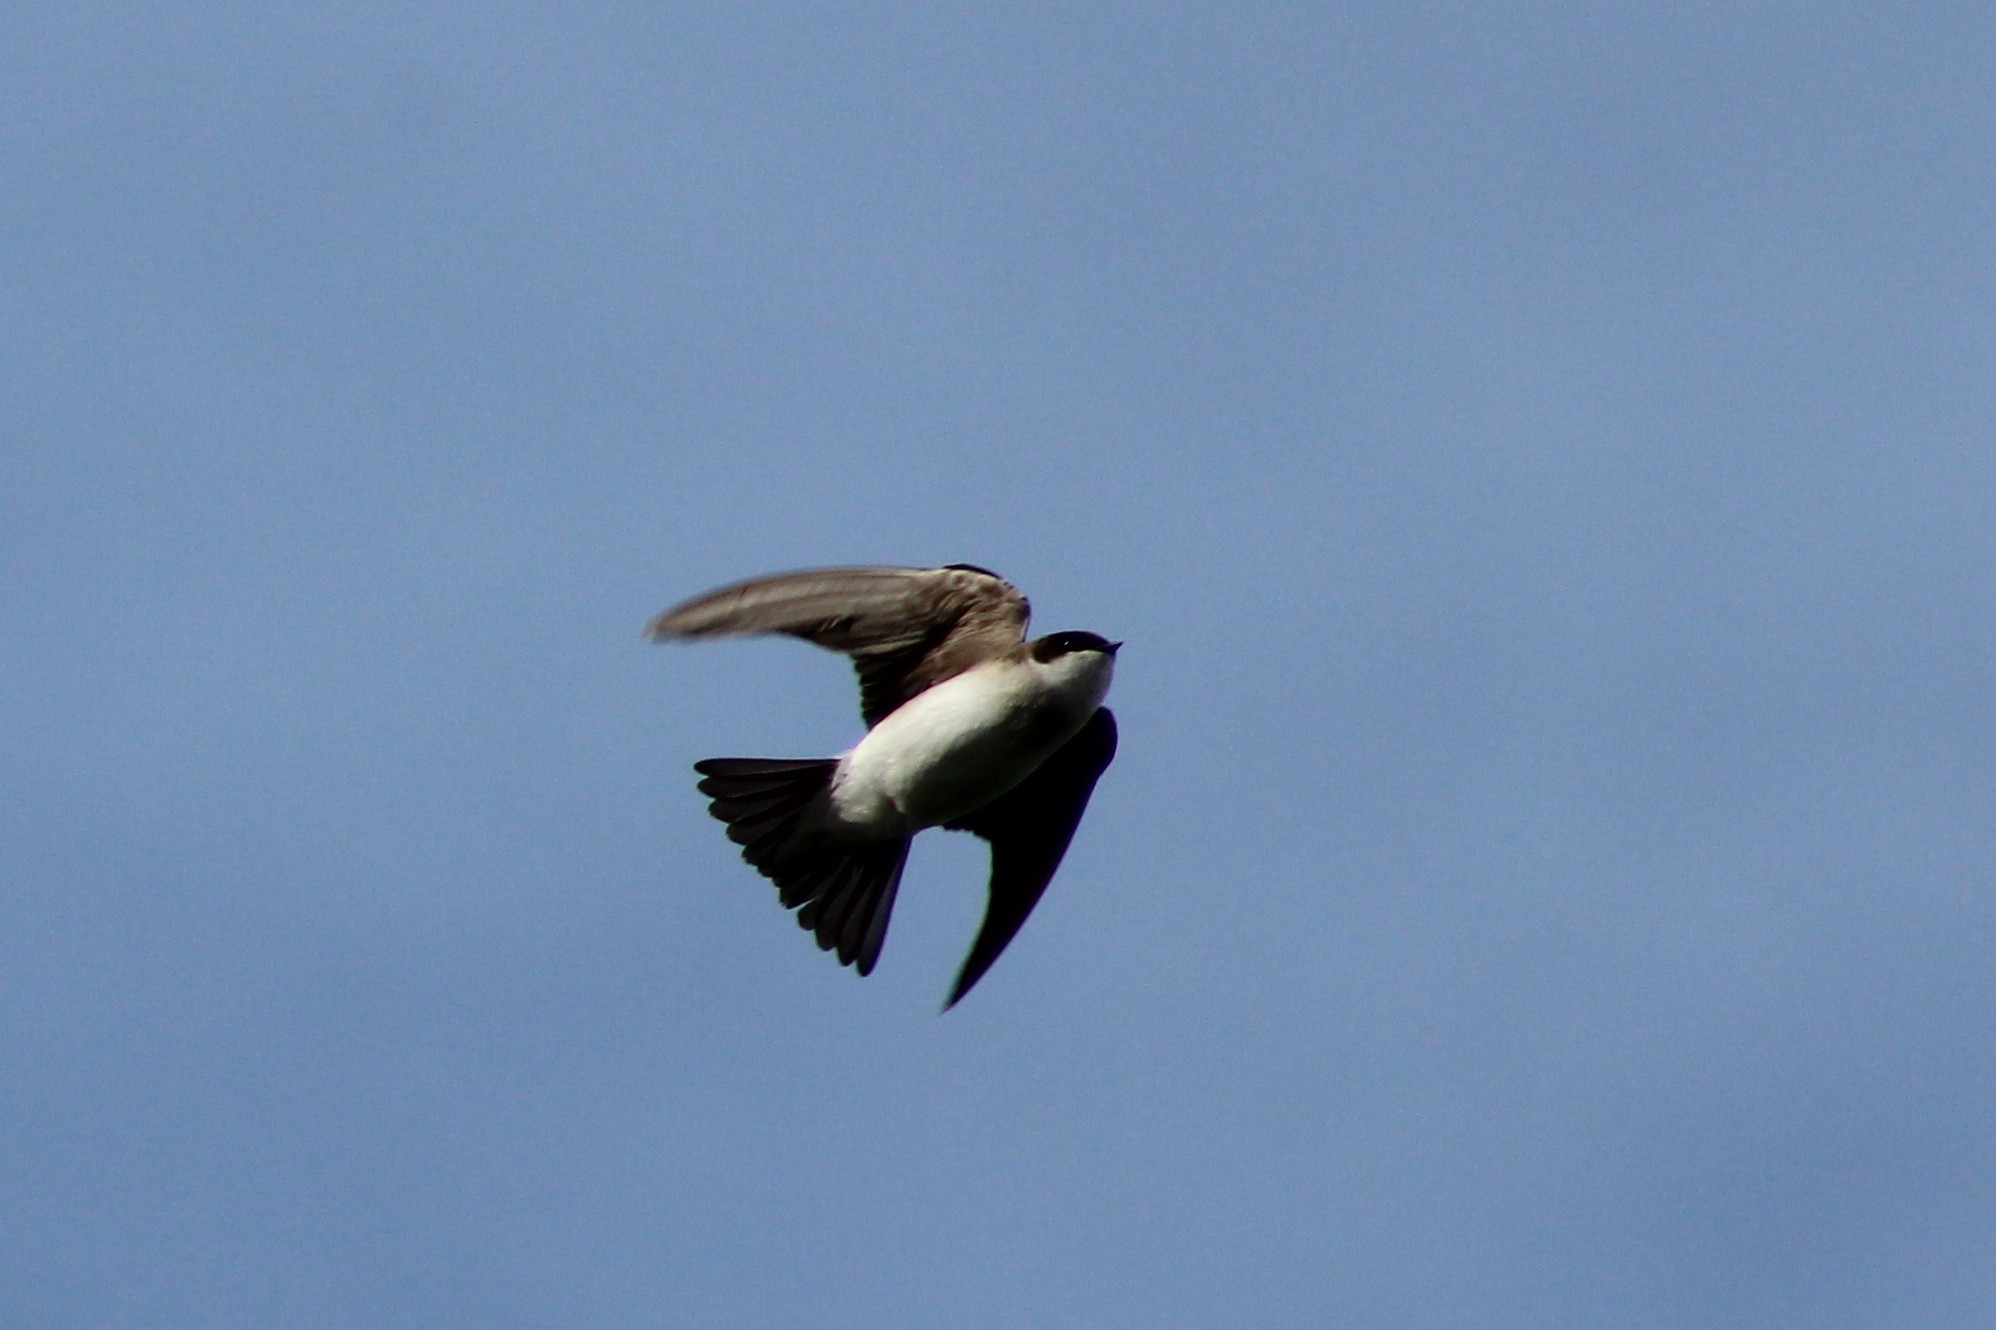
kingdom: Animalia
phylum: Chordata
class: Aves
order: Passeriformes
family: Hirundinidae
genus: Tachycineta
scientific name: Tachycineta bicolor
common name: Tree swallow
